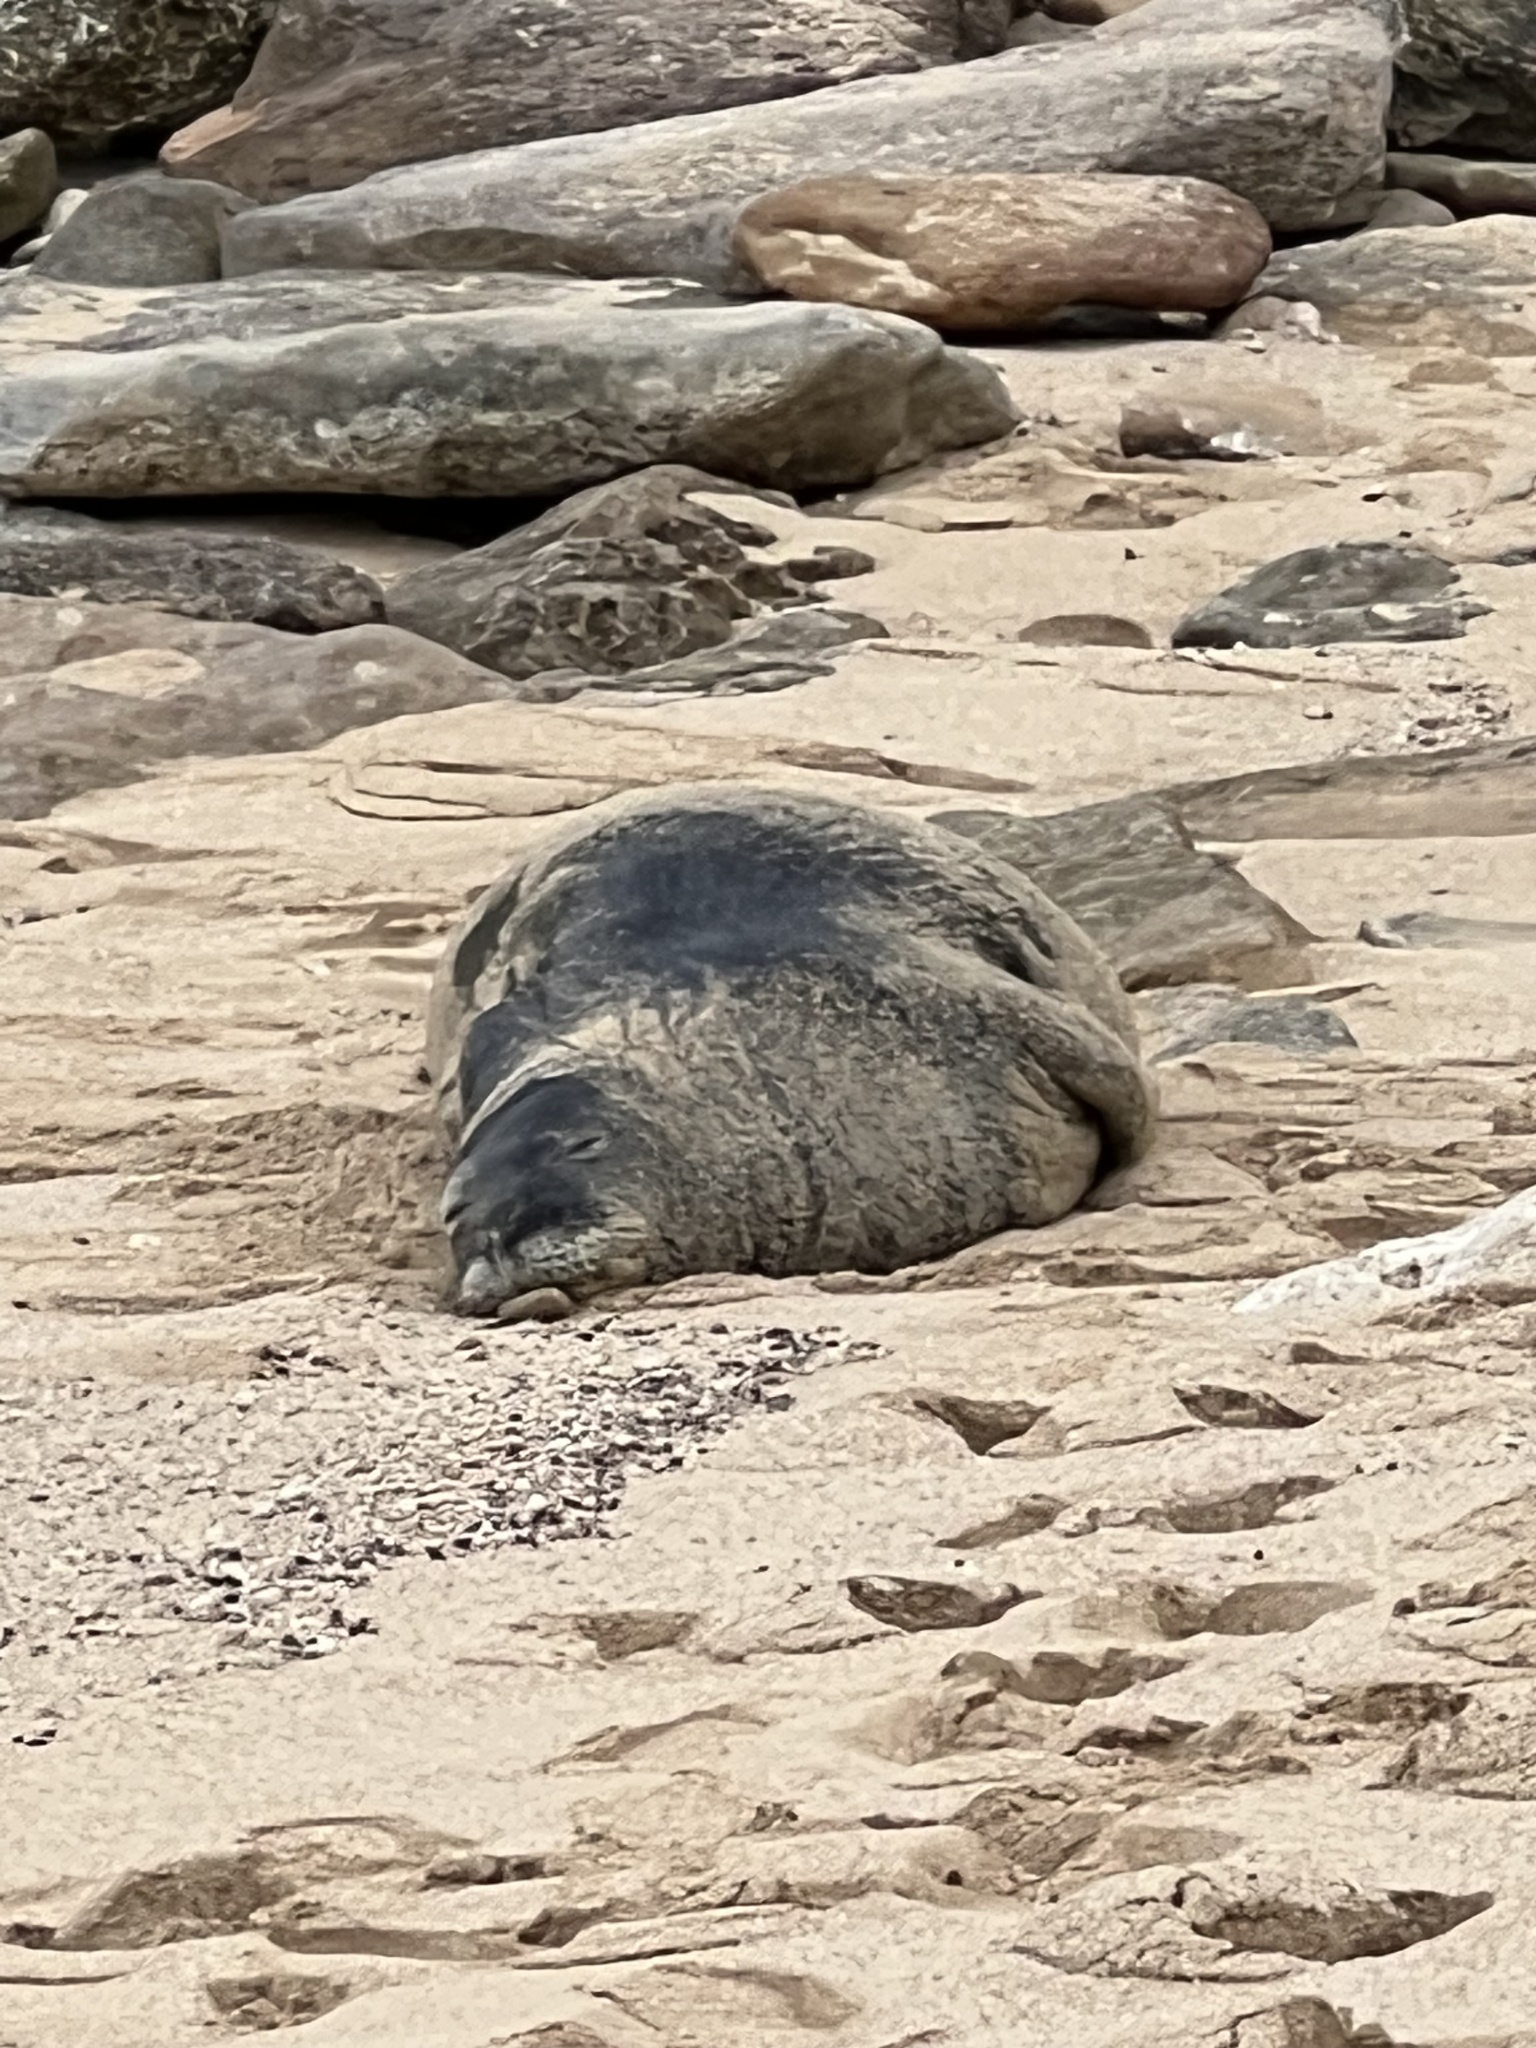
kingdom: Animalia
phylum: Chordata
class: Mammalia
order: Carnivora
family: Phocidae
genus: Neomonachus
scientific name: Neomonachus schauinslandi
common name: Hawaiian monk seal
